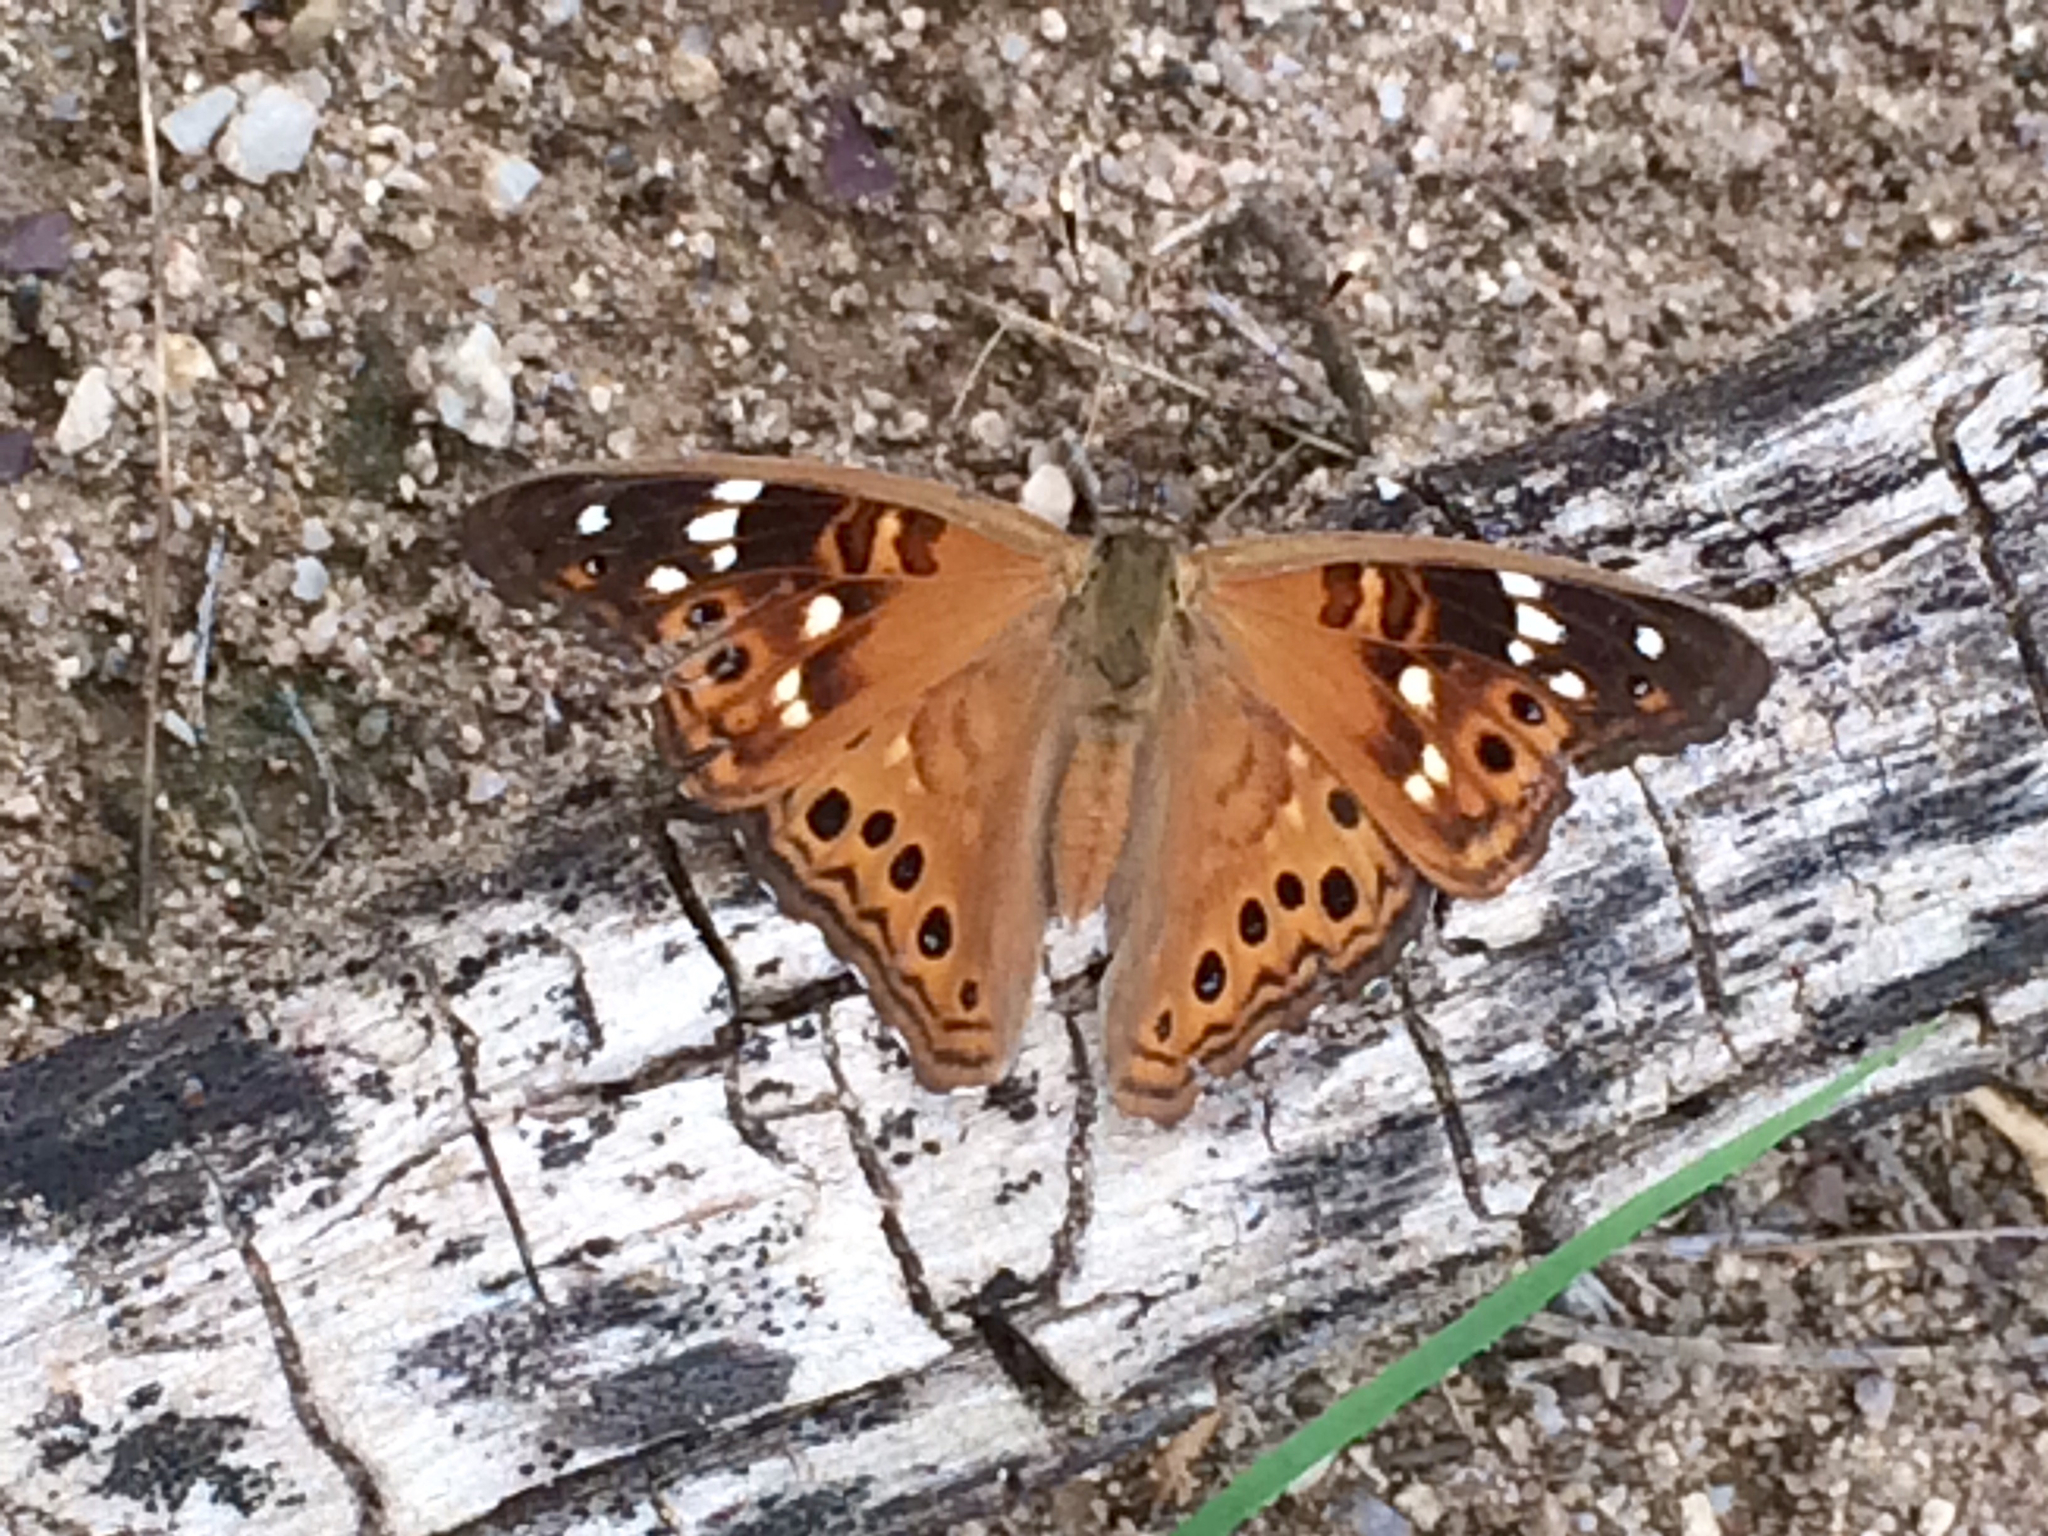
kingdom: Animalia
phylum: Arthropoda
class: Insecta
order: Lepidoptera
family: Nymphalidae
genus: Asterocampa
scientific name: Asterocampa leilia
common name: Empress leilia
